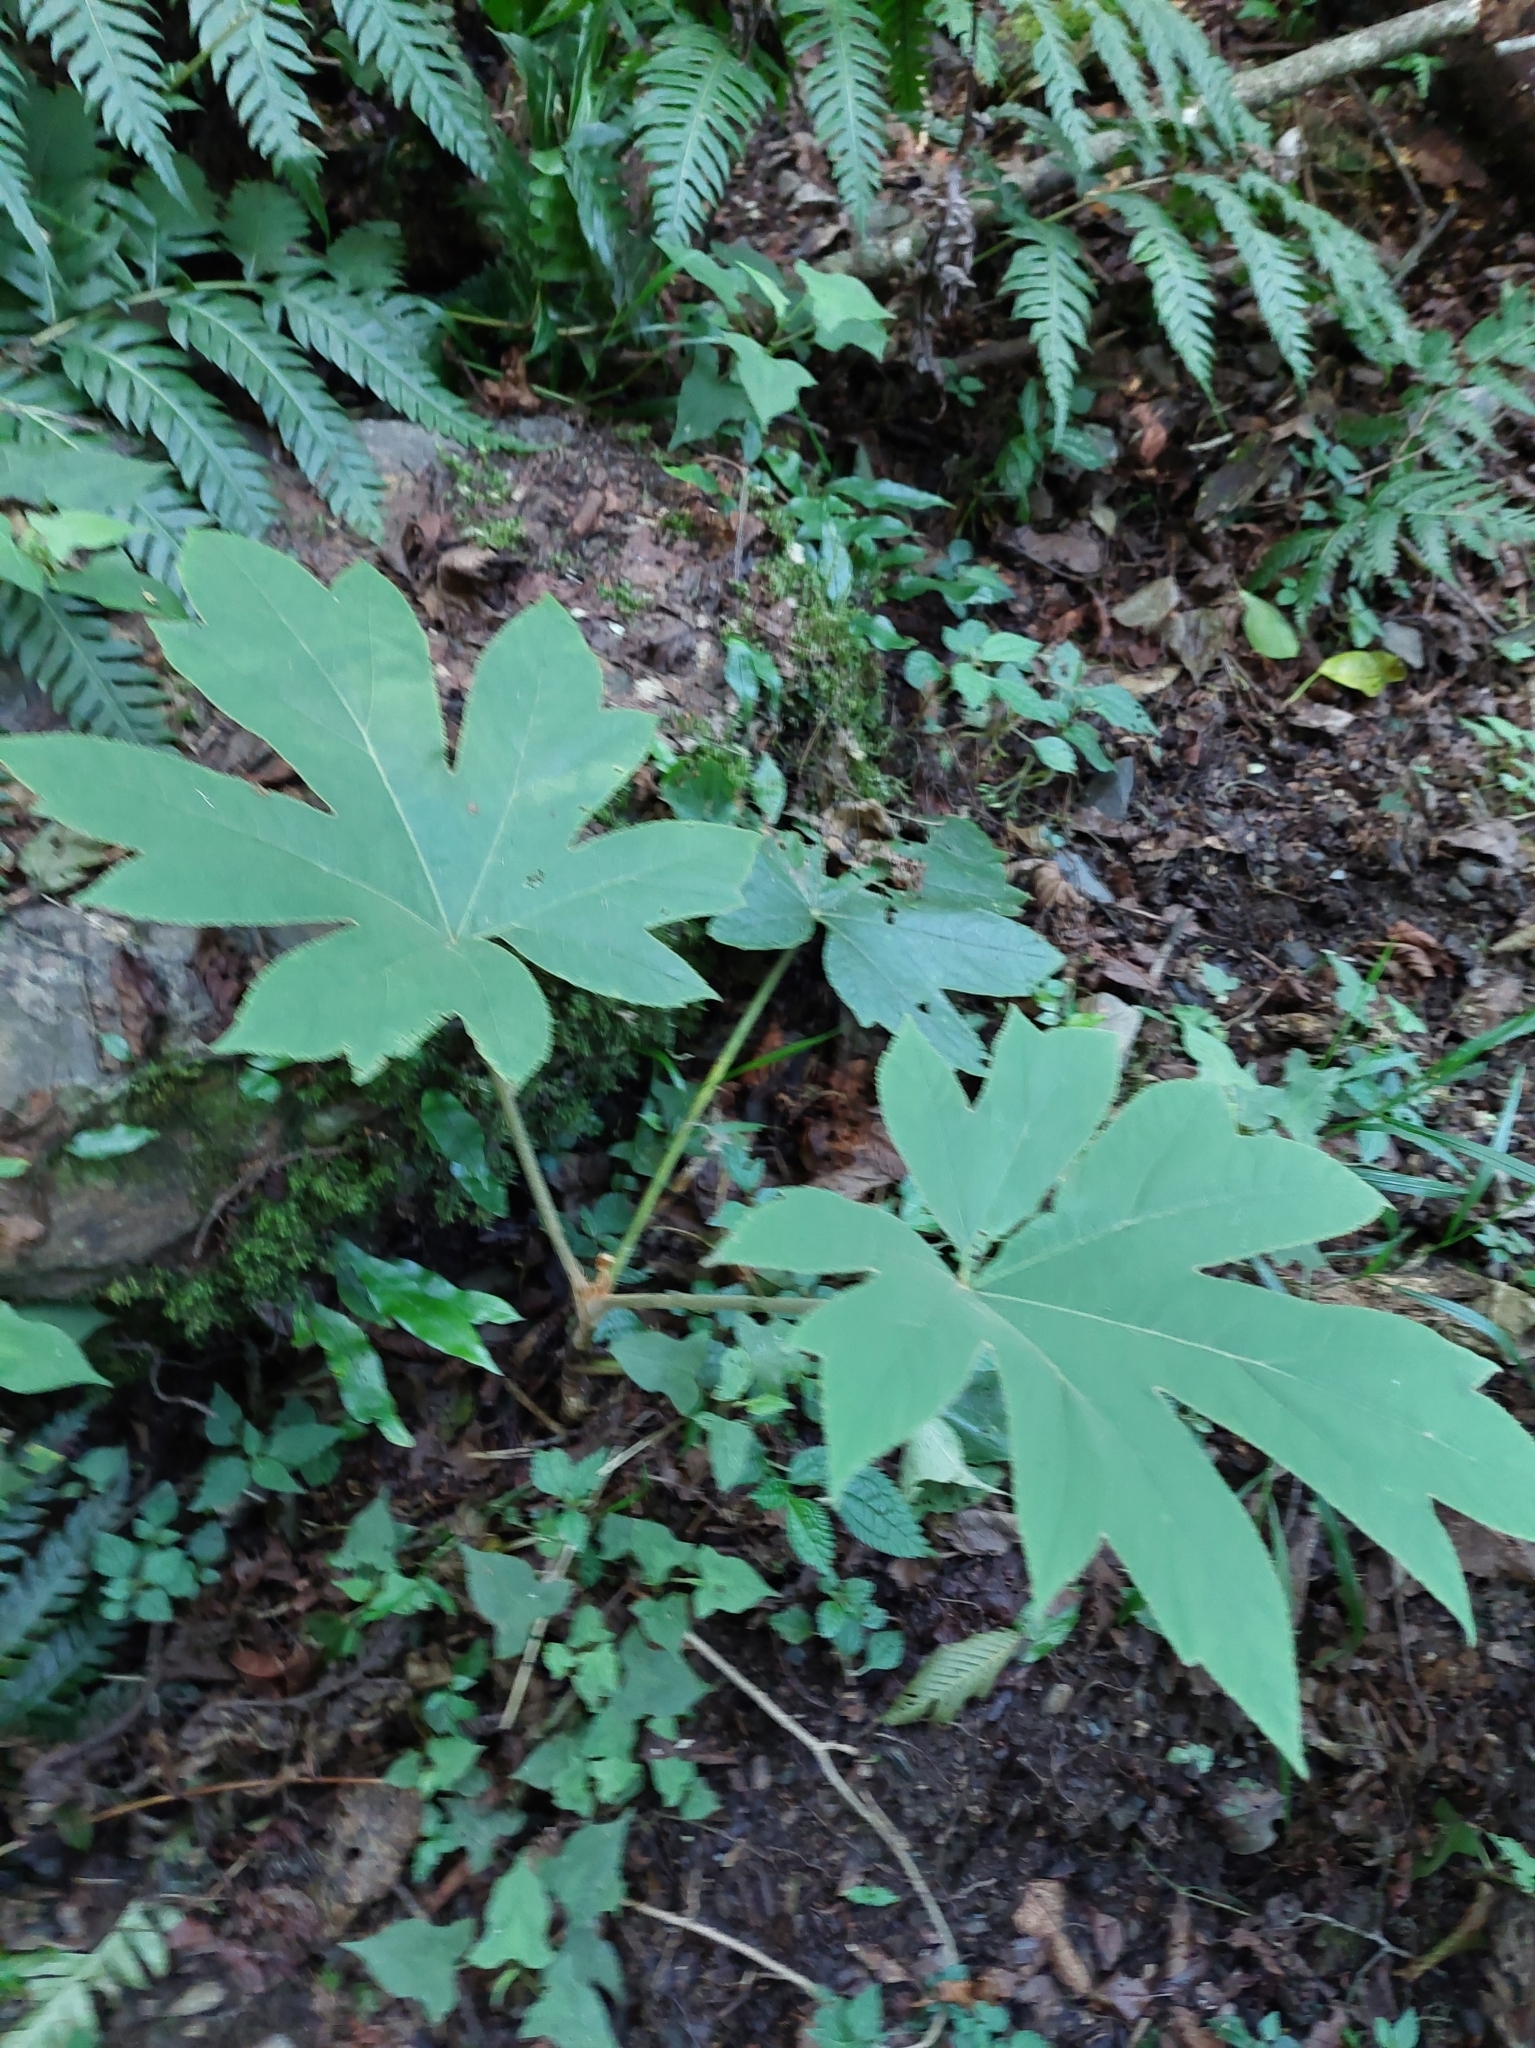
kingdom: Plantae
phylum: Tracheophyta
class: Magnoliopsida
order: Apiales
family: Araliaceae
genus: Tetrapanax
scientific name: Tetrapanax papyrifer
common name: Rice-paper plant
